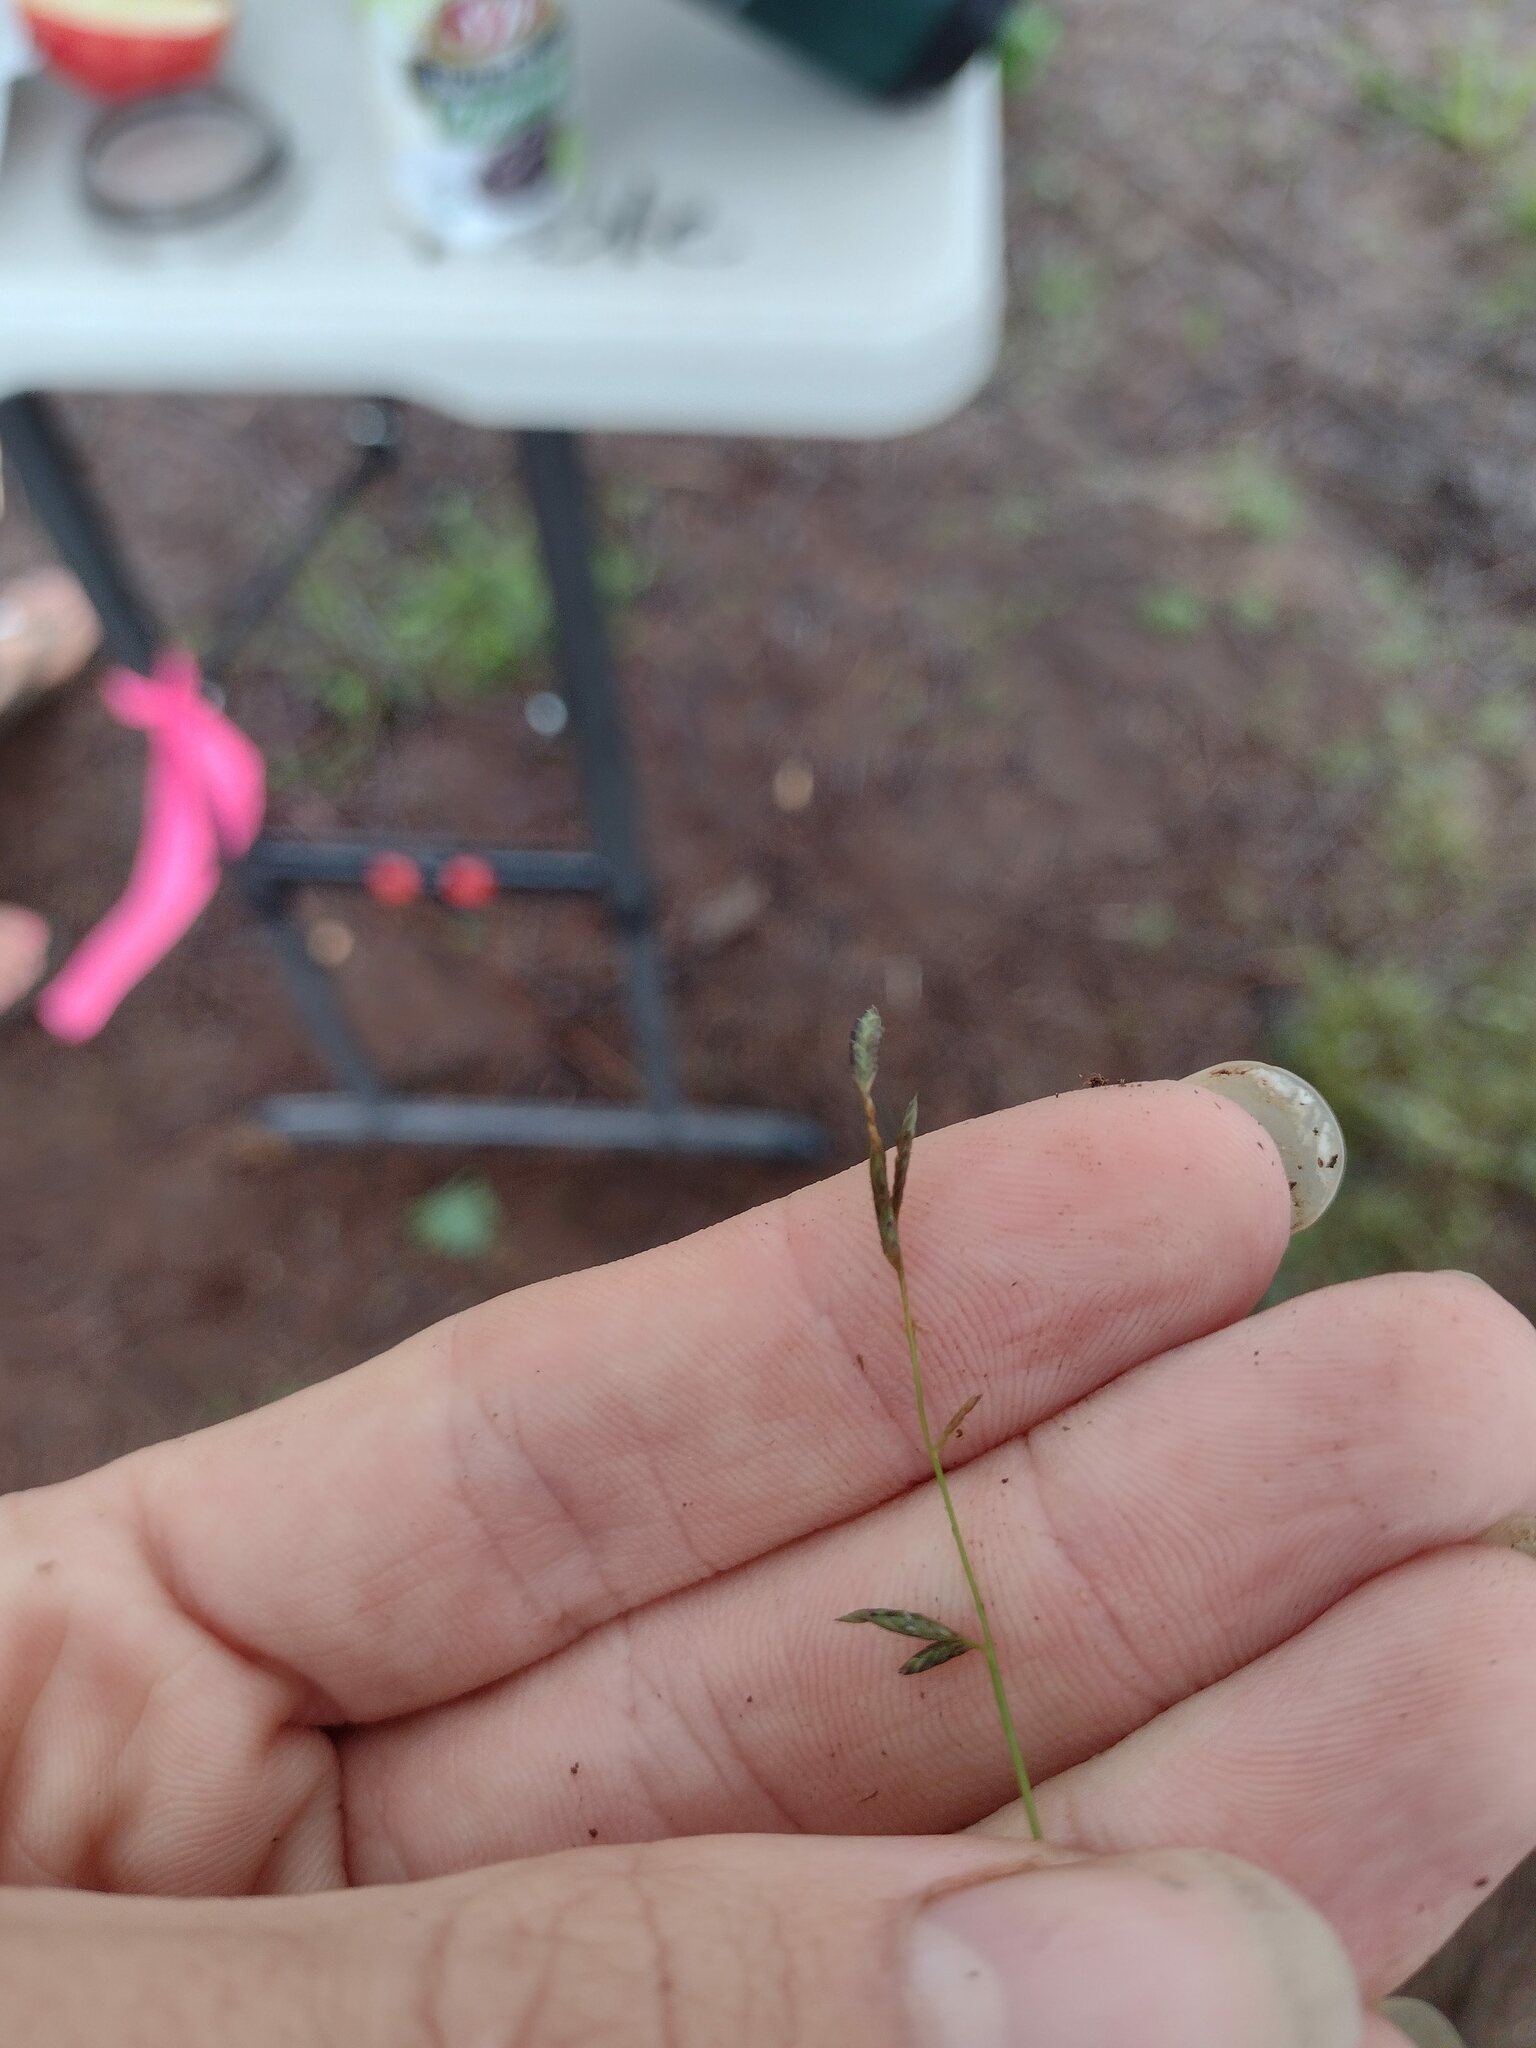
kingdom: Plantae
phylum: Tracheophyta
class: Liliopsida
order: Poales
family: Poaceae
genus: Eragrostis
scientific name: Eragrostis brownii
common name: Lovegrass
